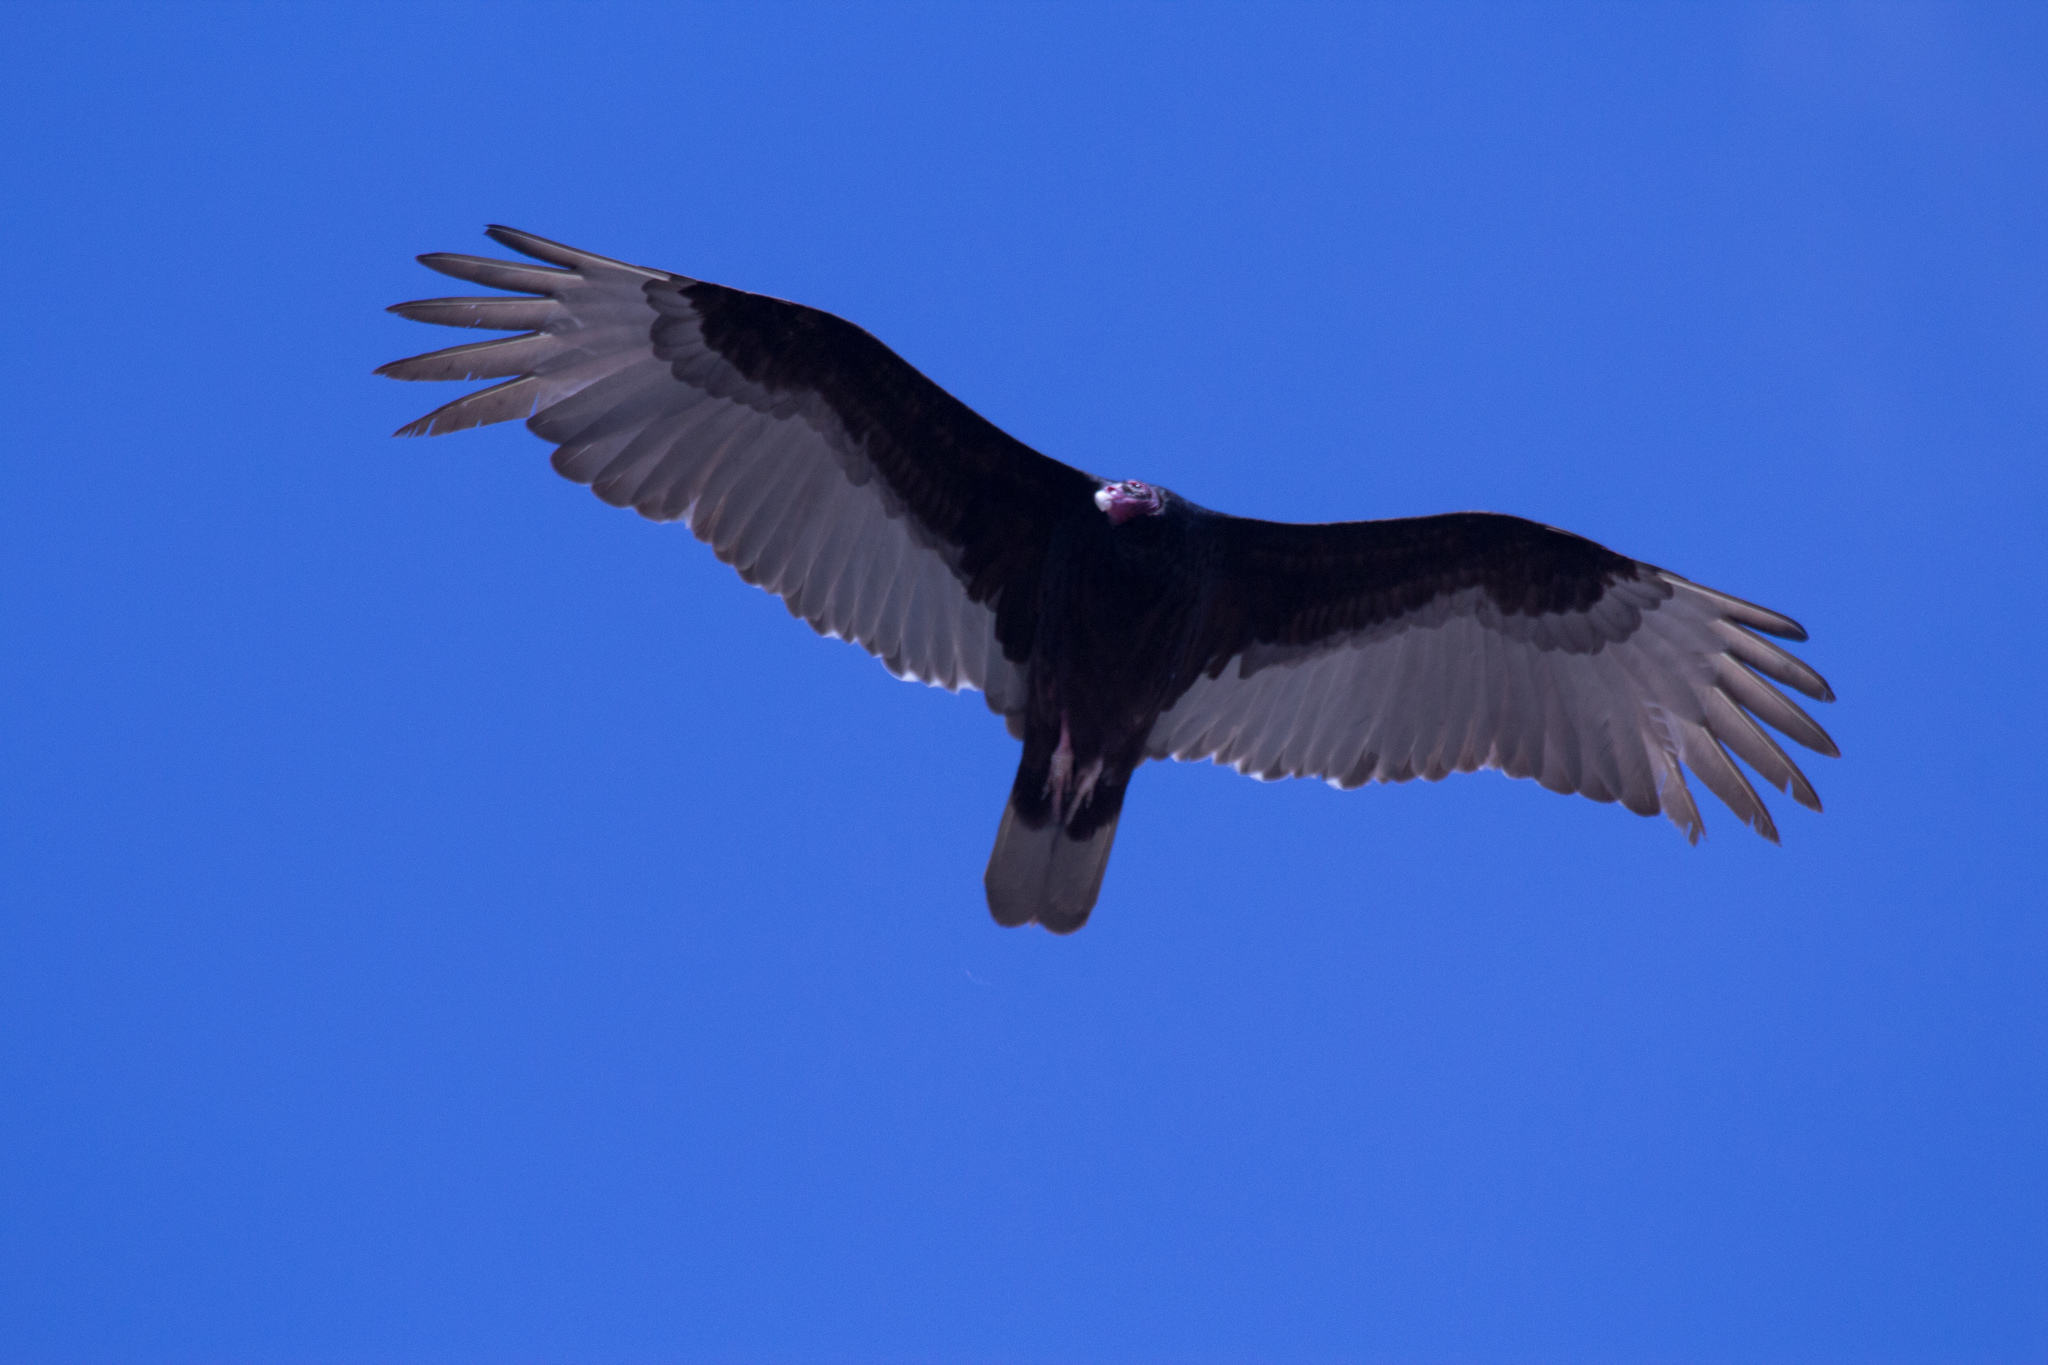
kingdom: Animalia
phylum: Chordata
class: Aves
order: Accipitriformes
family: Cathartidae
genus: Cathartes
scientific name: Cathartes aura
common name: Turkey vulture
